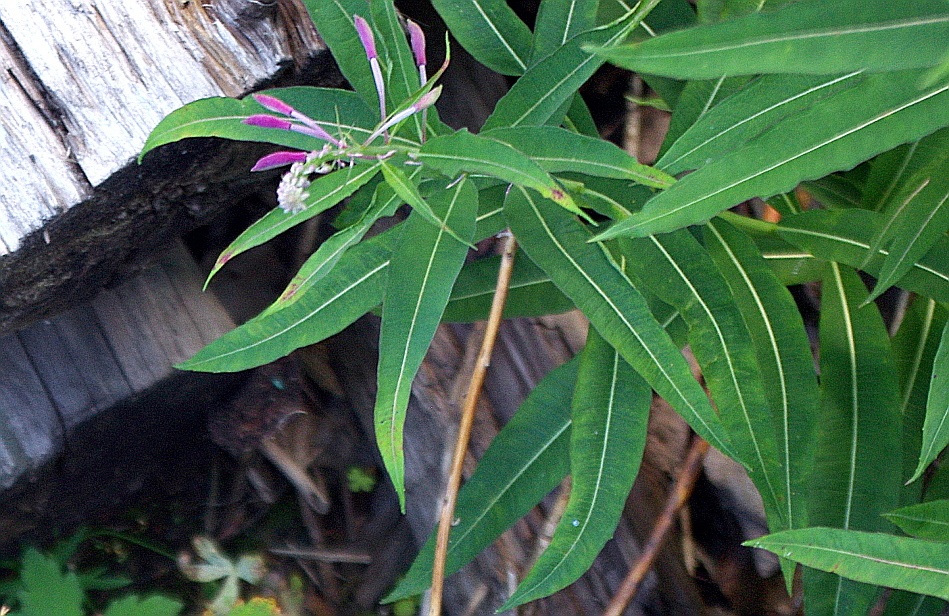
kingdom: Plantae
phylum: Tracheophyta
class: Magnoliopsida
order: Myrtales
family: Onagraceae
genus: Chamaenerion
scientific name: Chamaenerion angustifolium
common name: Fireweed
